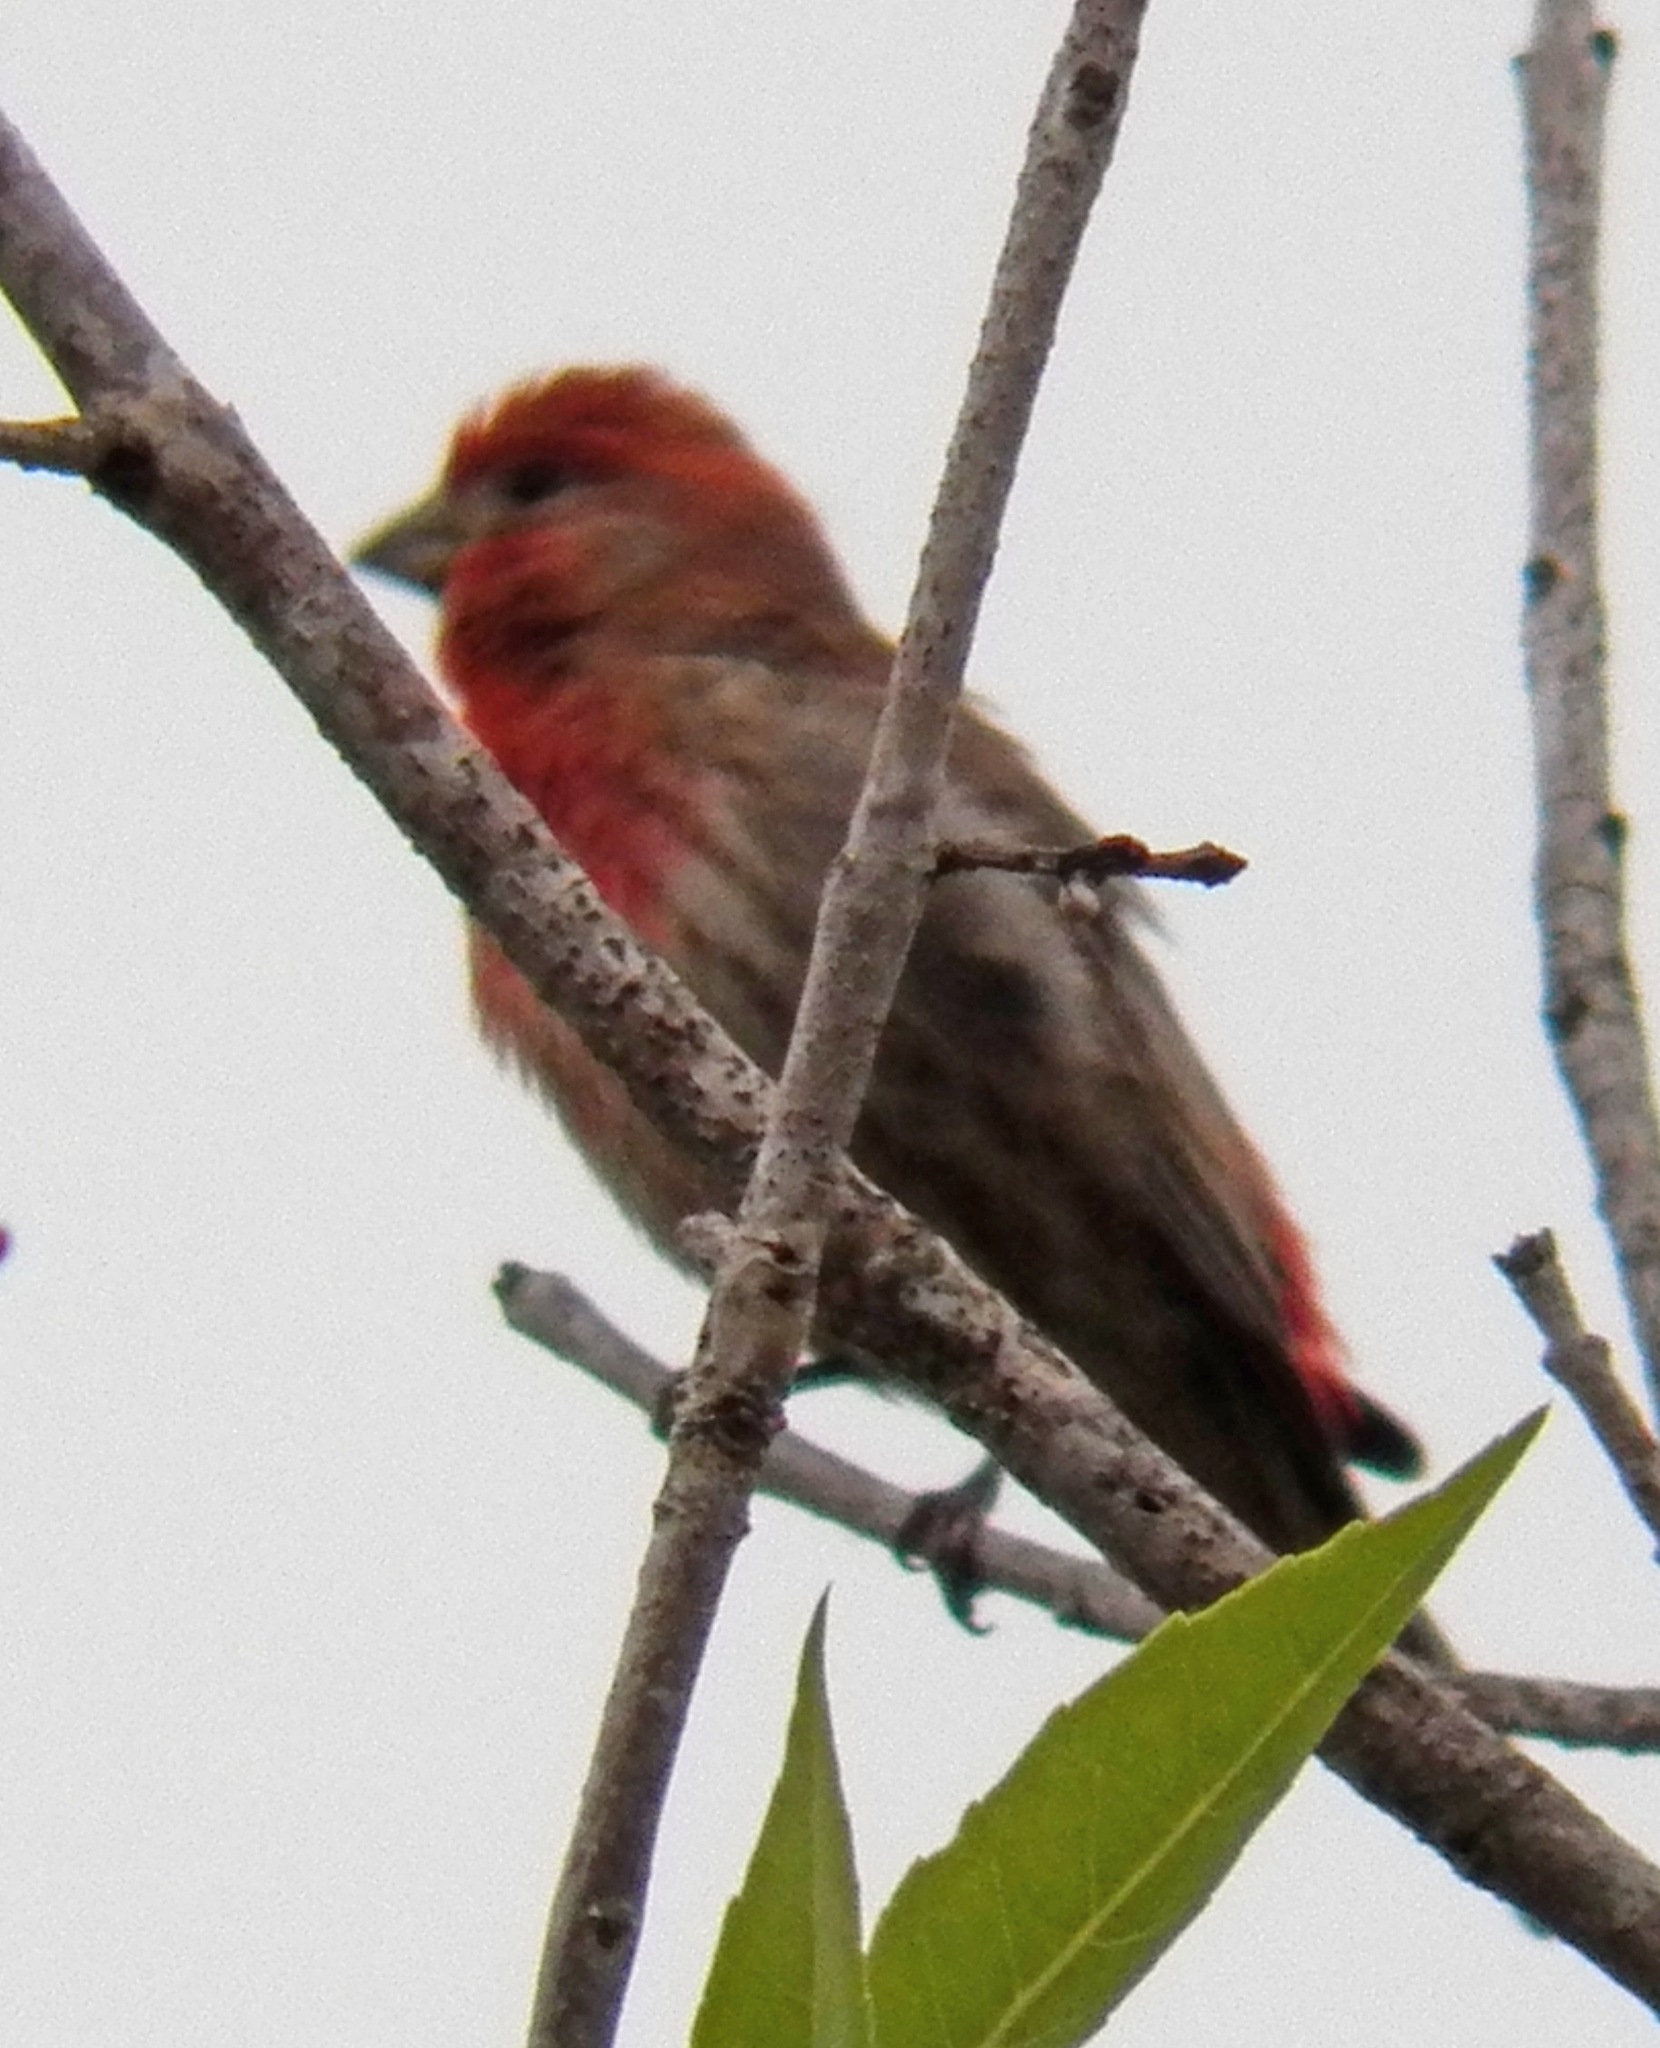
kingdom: Animalia
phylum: Chordata
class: Aves
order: Passeriformes
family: Fringillidae
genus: Haemorhous
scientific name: Haemorhous mexicanus
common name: House finch
